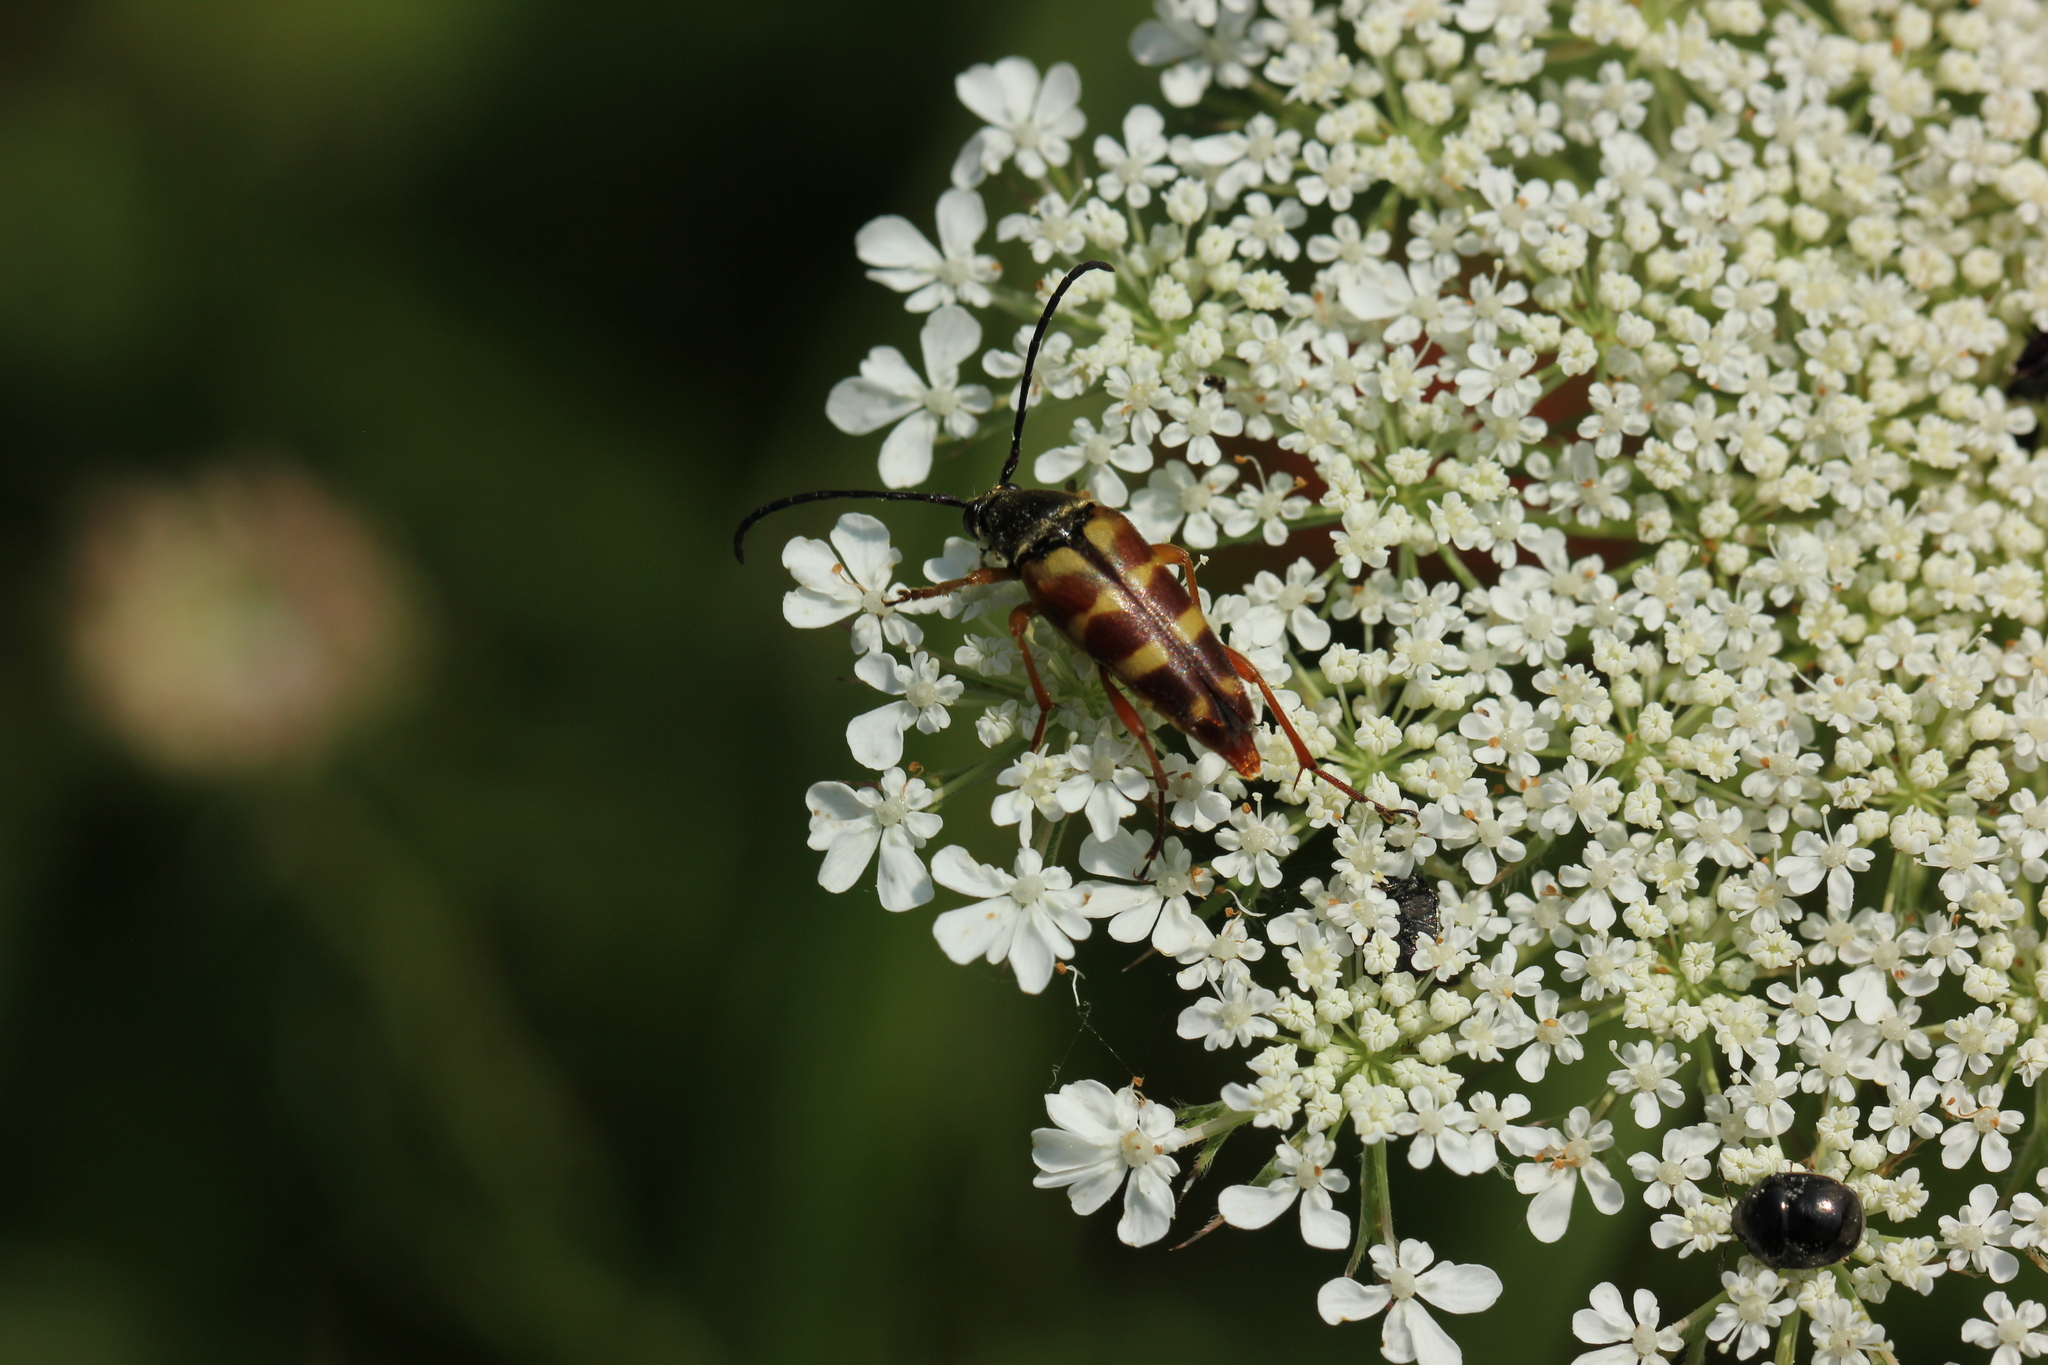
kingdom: Animalia
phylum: Arthropoda
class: Insecta
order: Coleoptera
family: Cerambycidae
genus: Typocerus
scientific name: Typocerus velutinus
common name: Banded longhorn beetle
